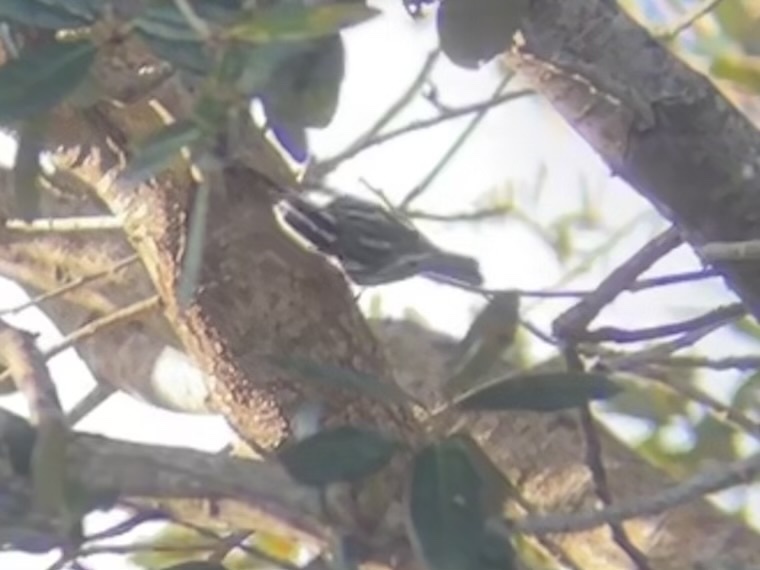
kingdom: Animalia
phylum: Chordata
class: Aves
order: Passeriformes
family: Parulidae
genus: Mniotilta
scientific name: Mniotilta varia
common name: Black-and-white warbler
